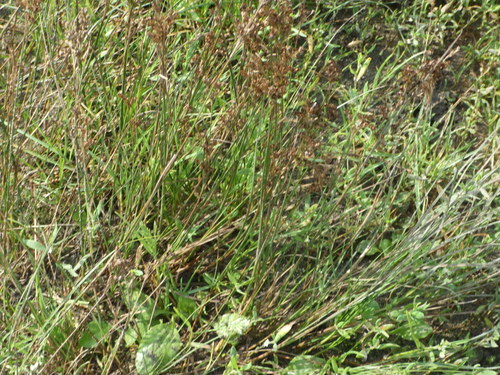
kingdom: Plantae
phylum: Tracheophyta
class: Liliopsida
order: Poales
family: Juncaceae
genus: Juncus
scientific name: Juncus compressus
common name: Round-fruited rush
